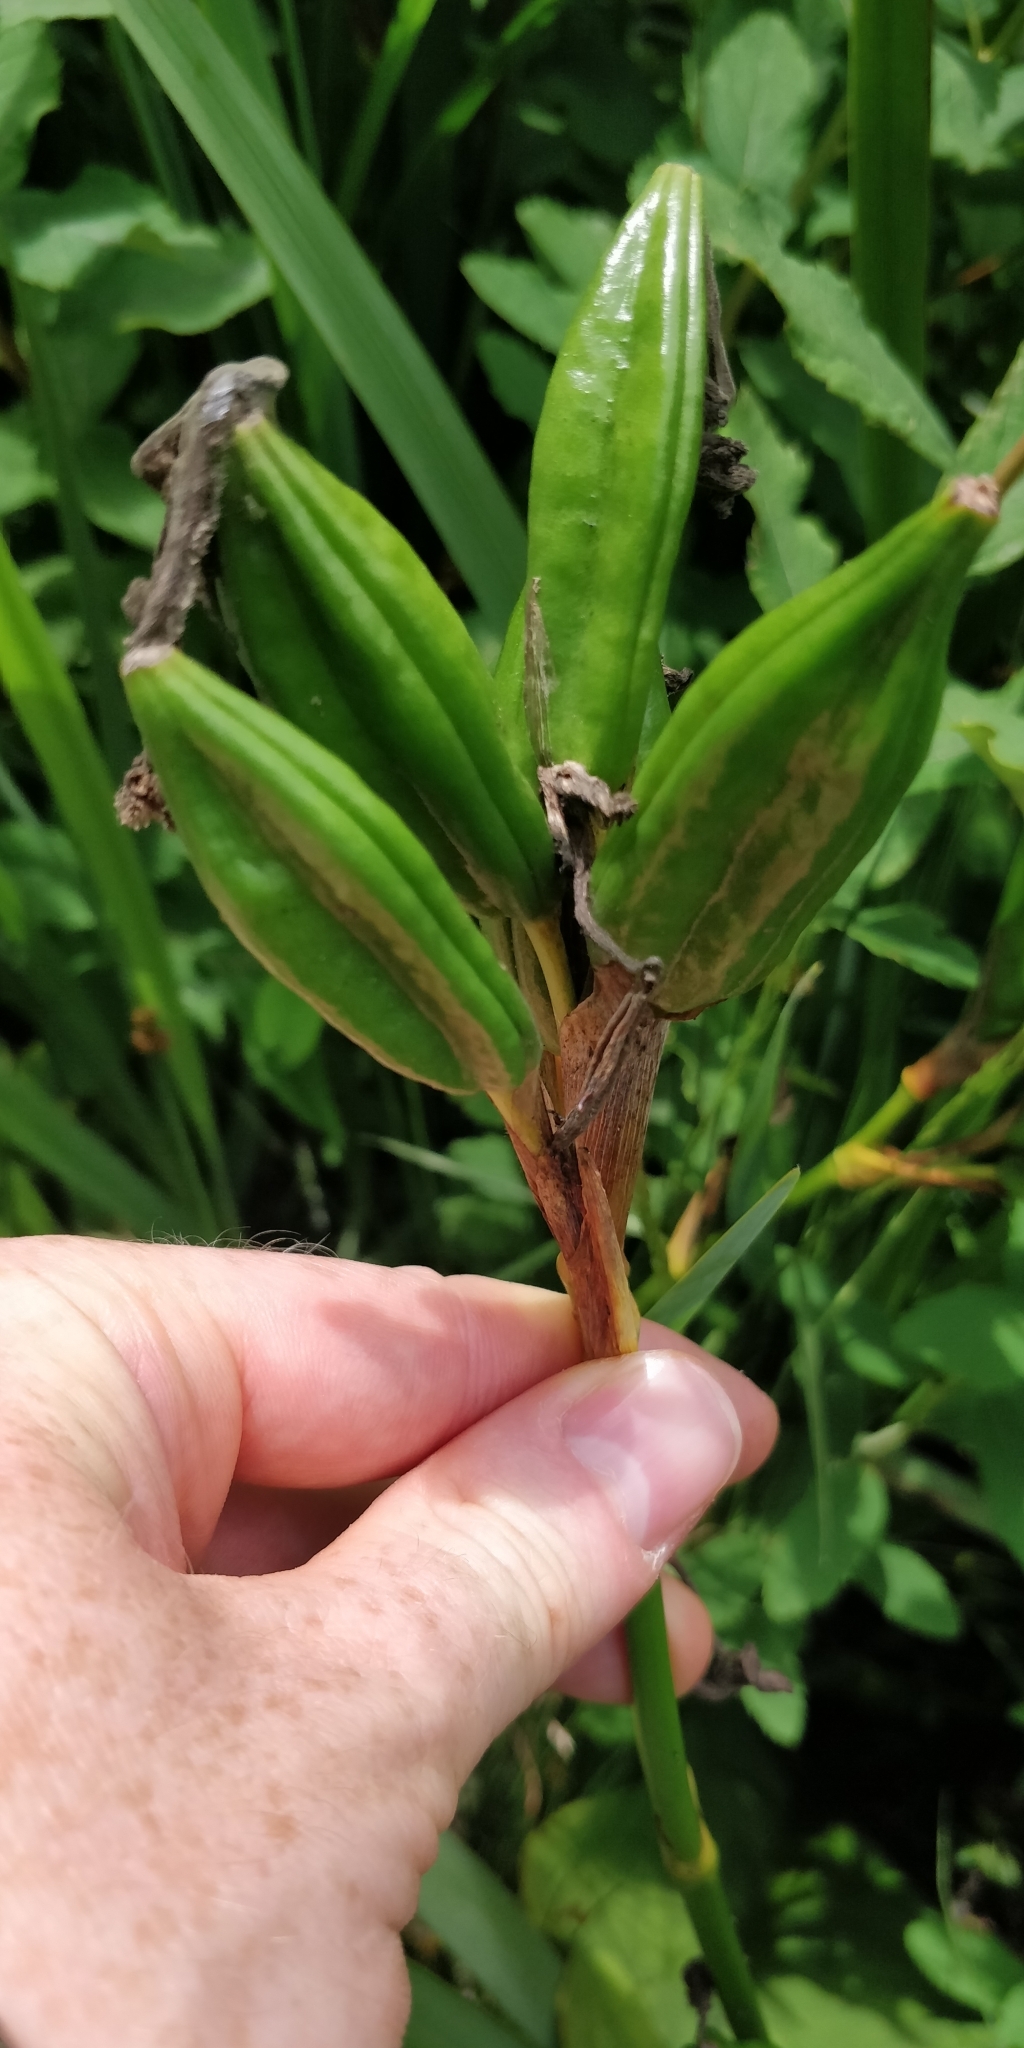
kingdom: Plantae
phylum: Tracheophyta
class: Liliopsida
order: Asparagales
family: Iridaceae
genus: Iris
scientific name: Iris pseudacorus
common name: Yellow flag
